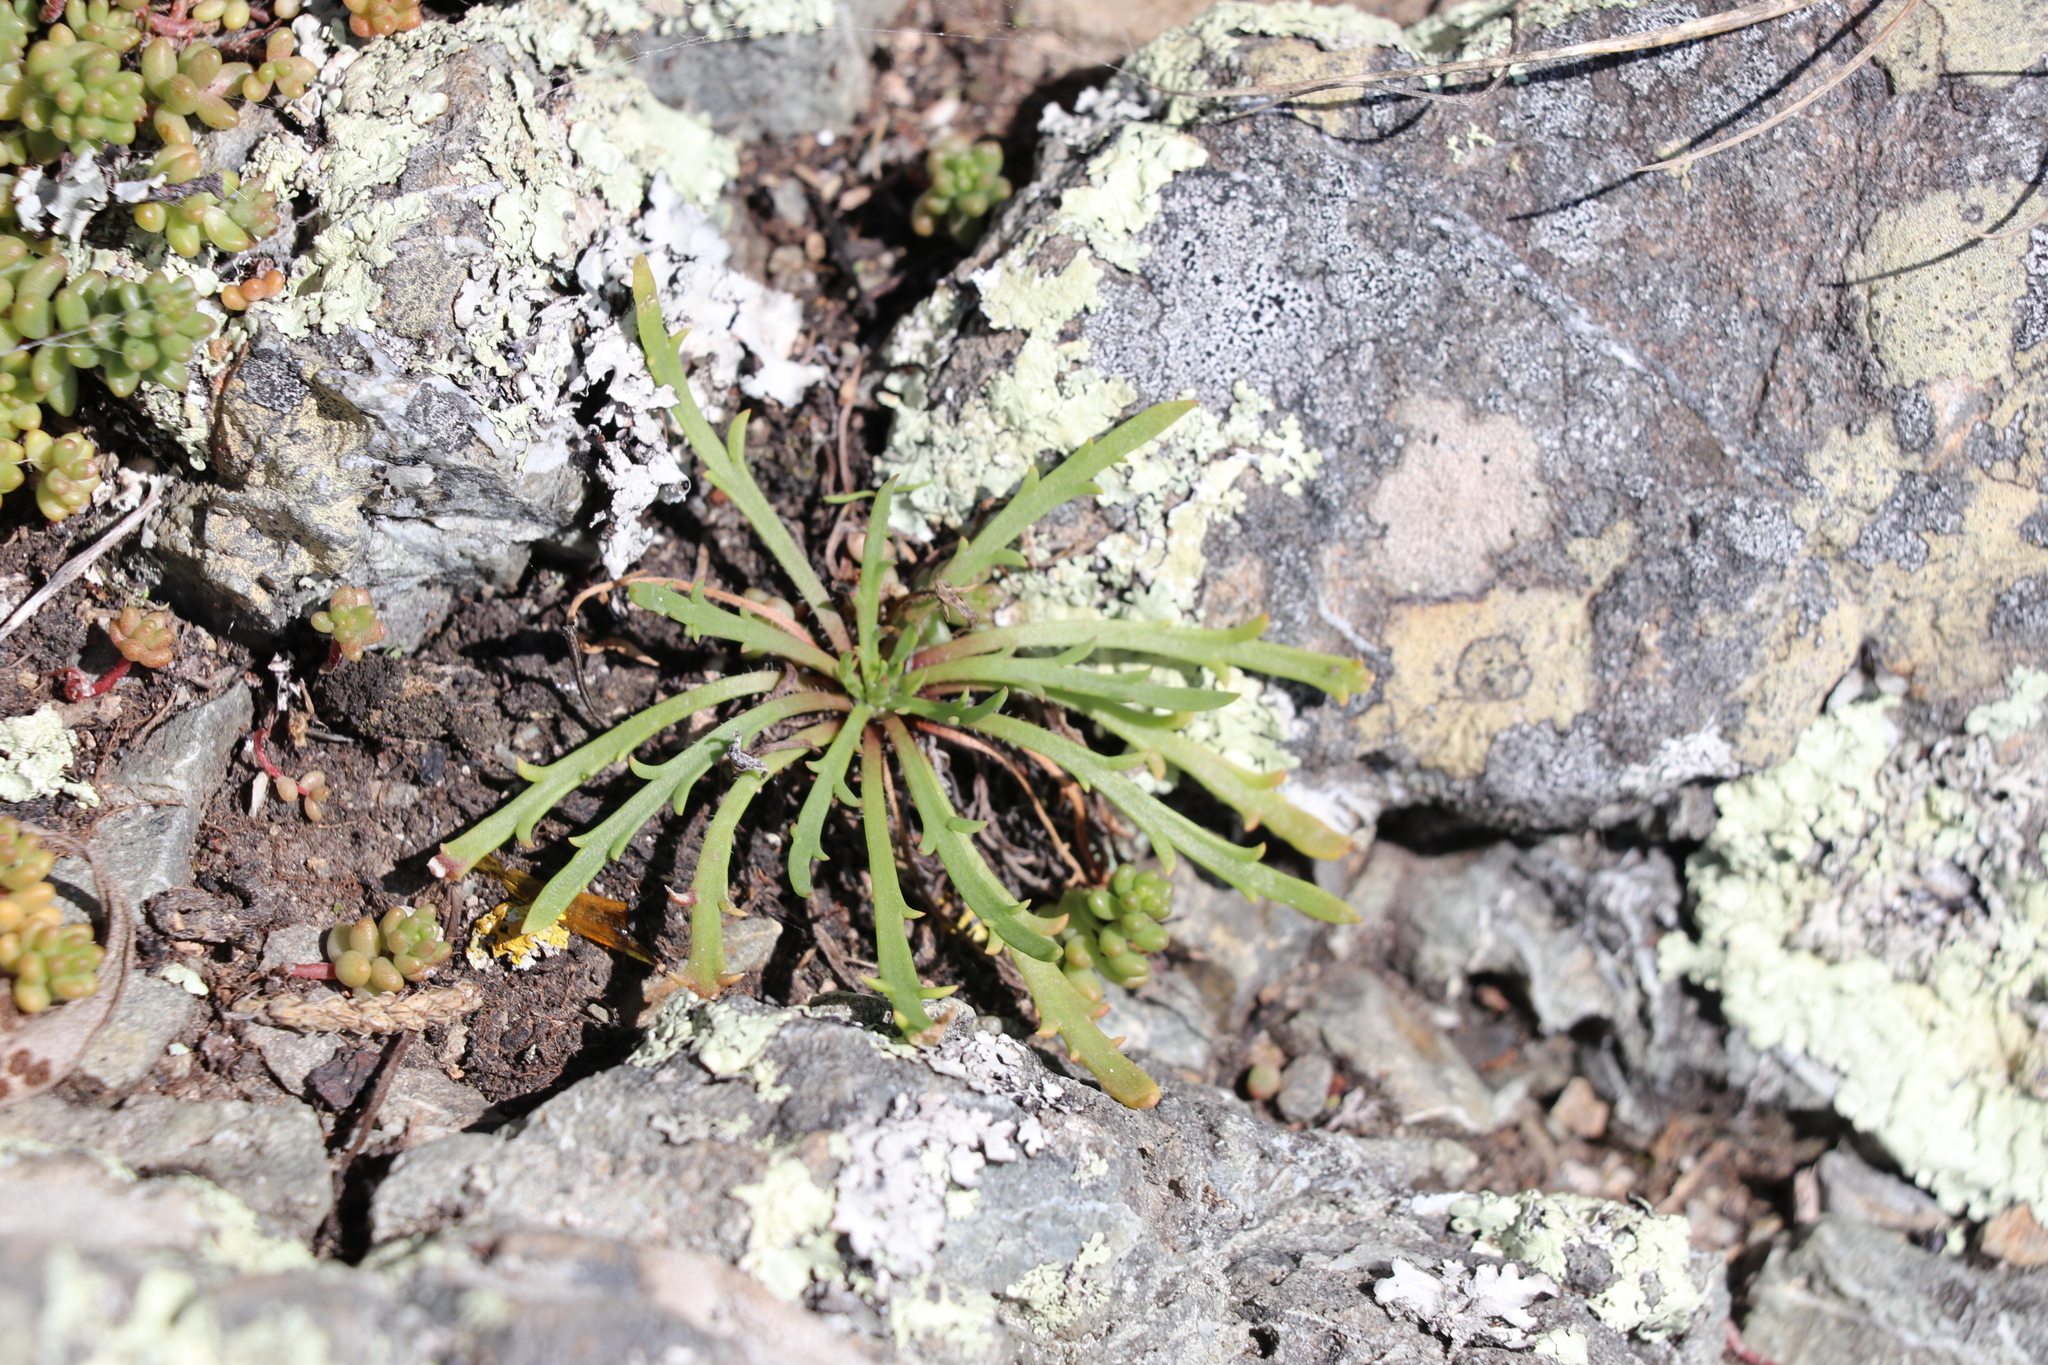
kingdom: Plantae
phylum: Tracheophyta
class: Magnoliopsida
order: Lamiales
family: Plantaginaceae
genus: Plantago
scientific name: Plantago coronopus
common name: Buck's-horn plantain
